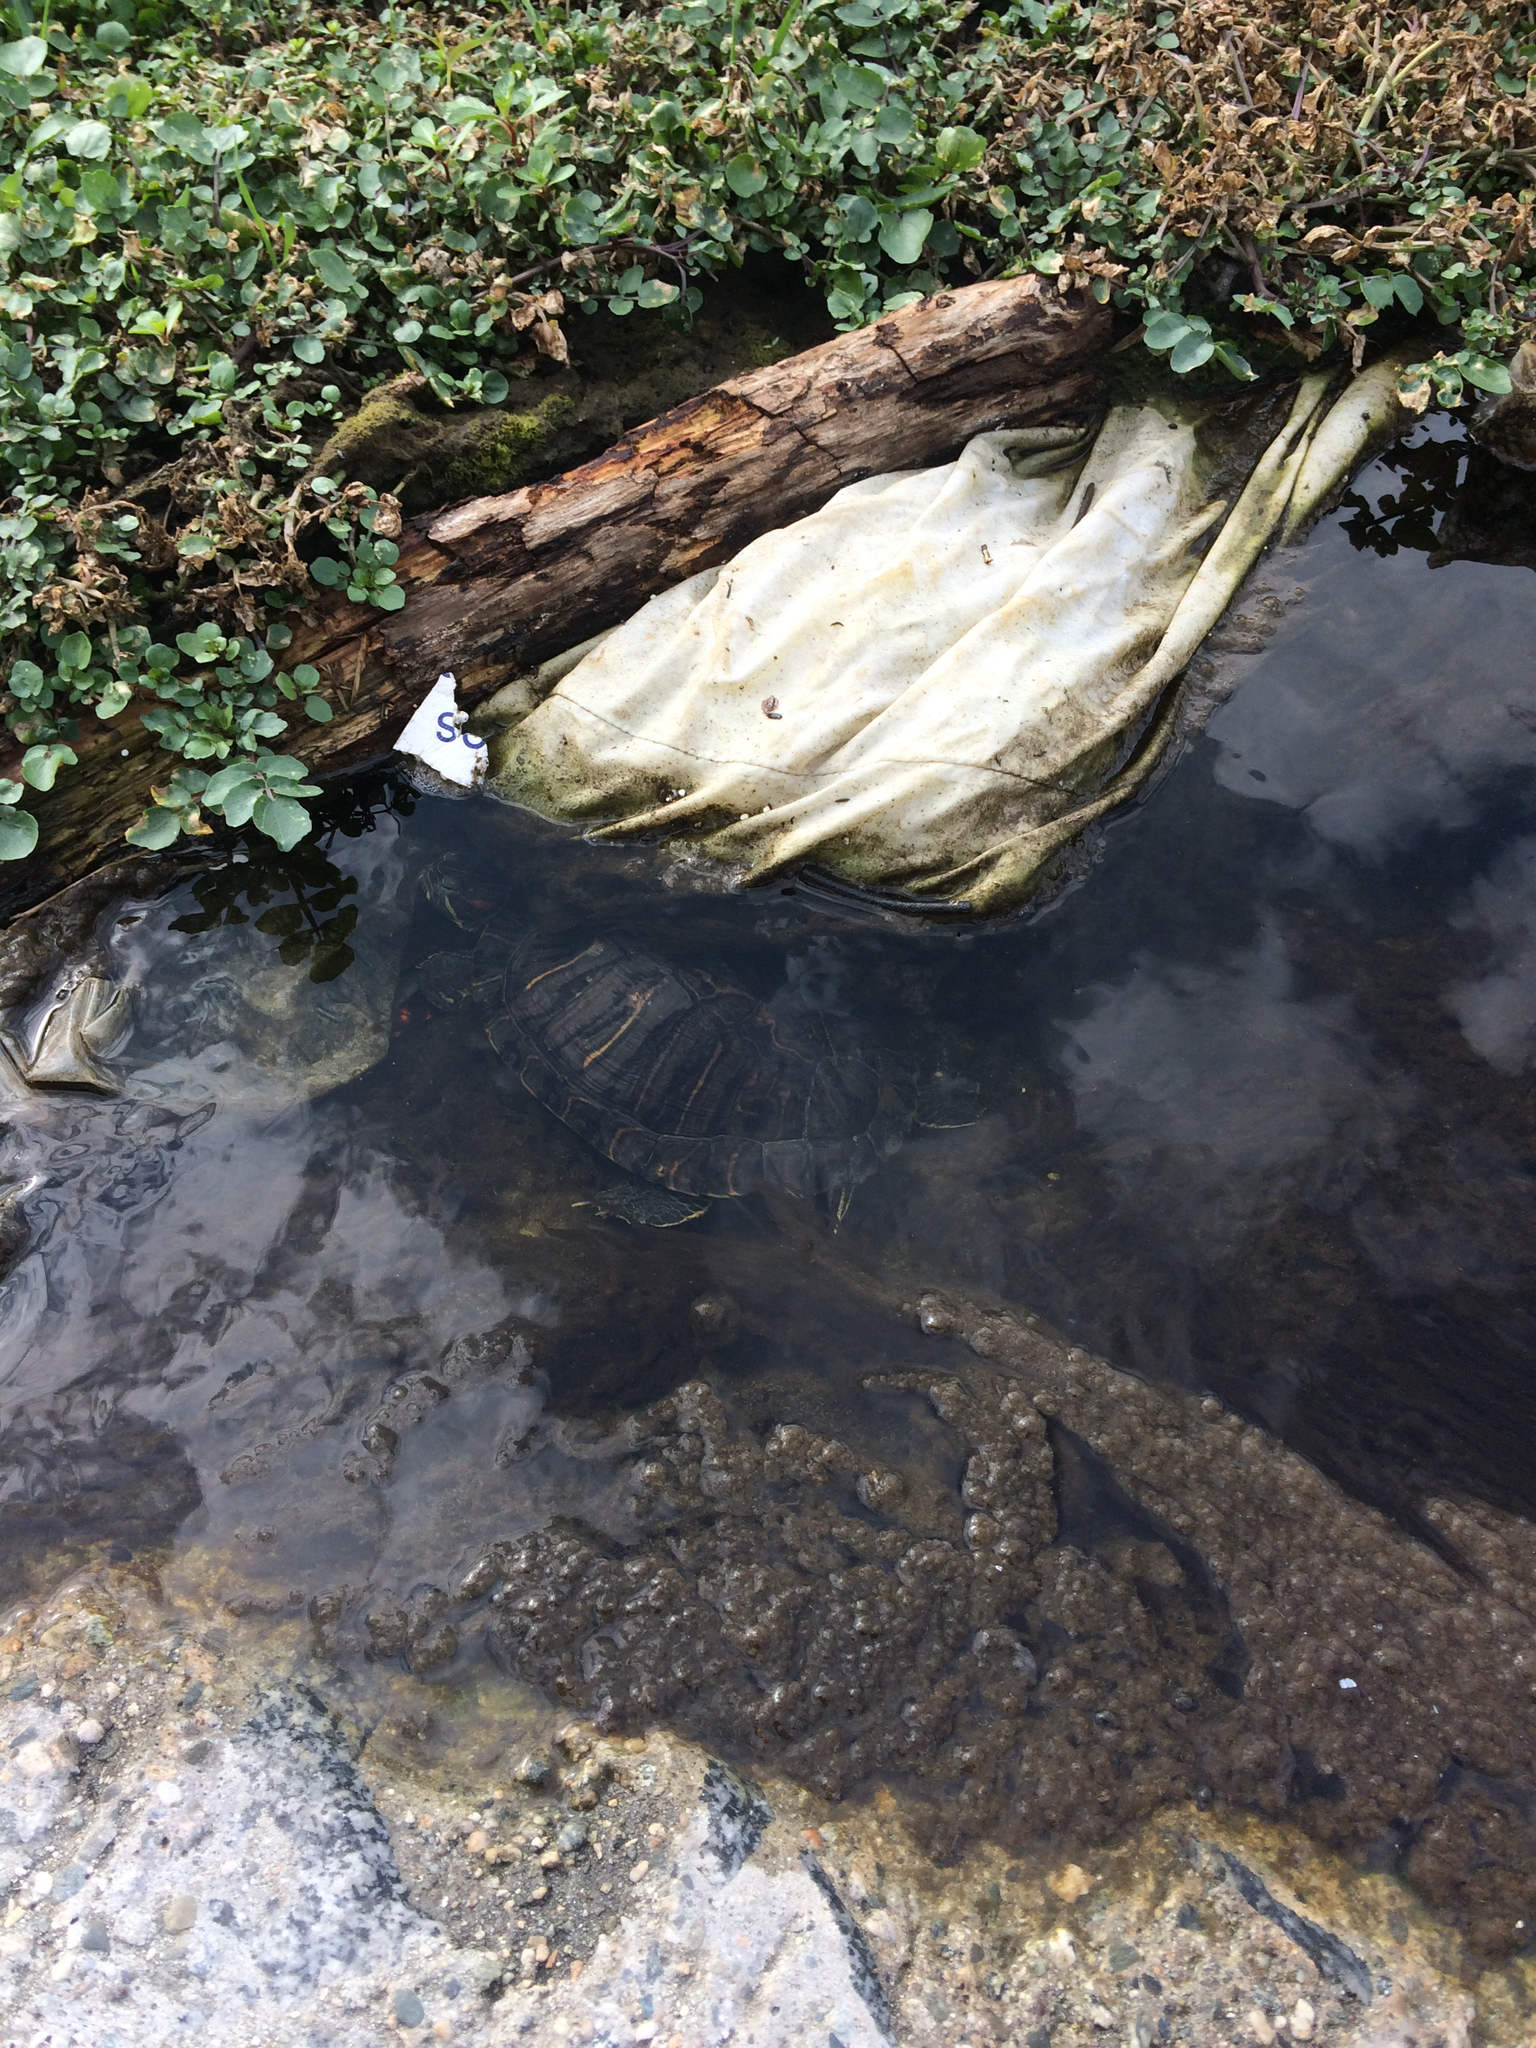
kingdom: Animalia
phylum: Chordata
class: Testudines
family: Emydidae
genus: Trachemys
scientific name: Trachemys scripta
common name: Slider
